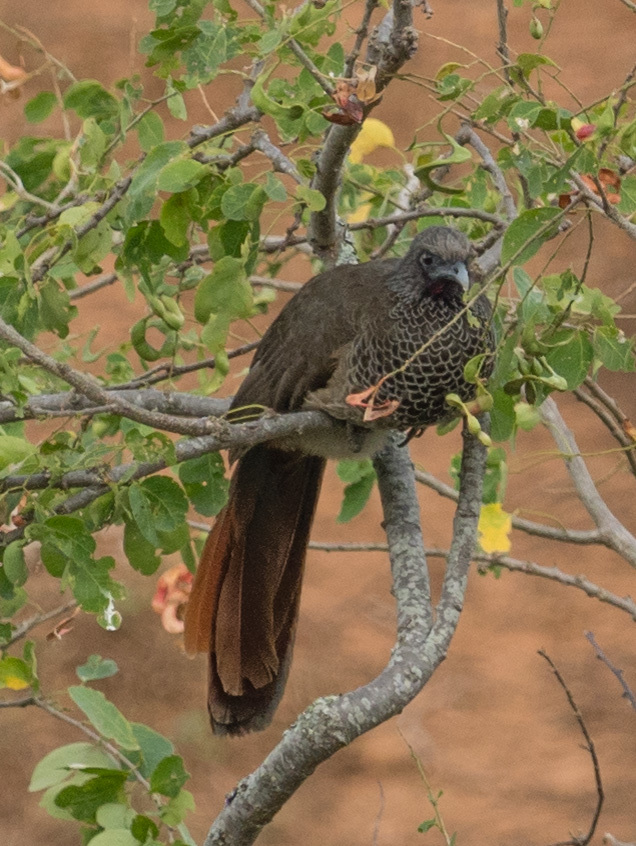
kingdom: Animalia
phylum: Chordata
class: Aves
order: Galliformes
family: Cracidae
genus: Ortalis
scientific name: Ortalis columbiana
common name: Colombian chachalaca
